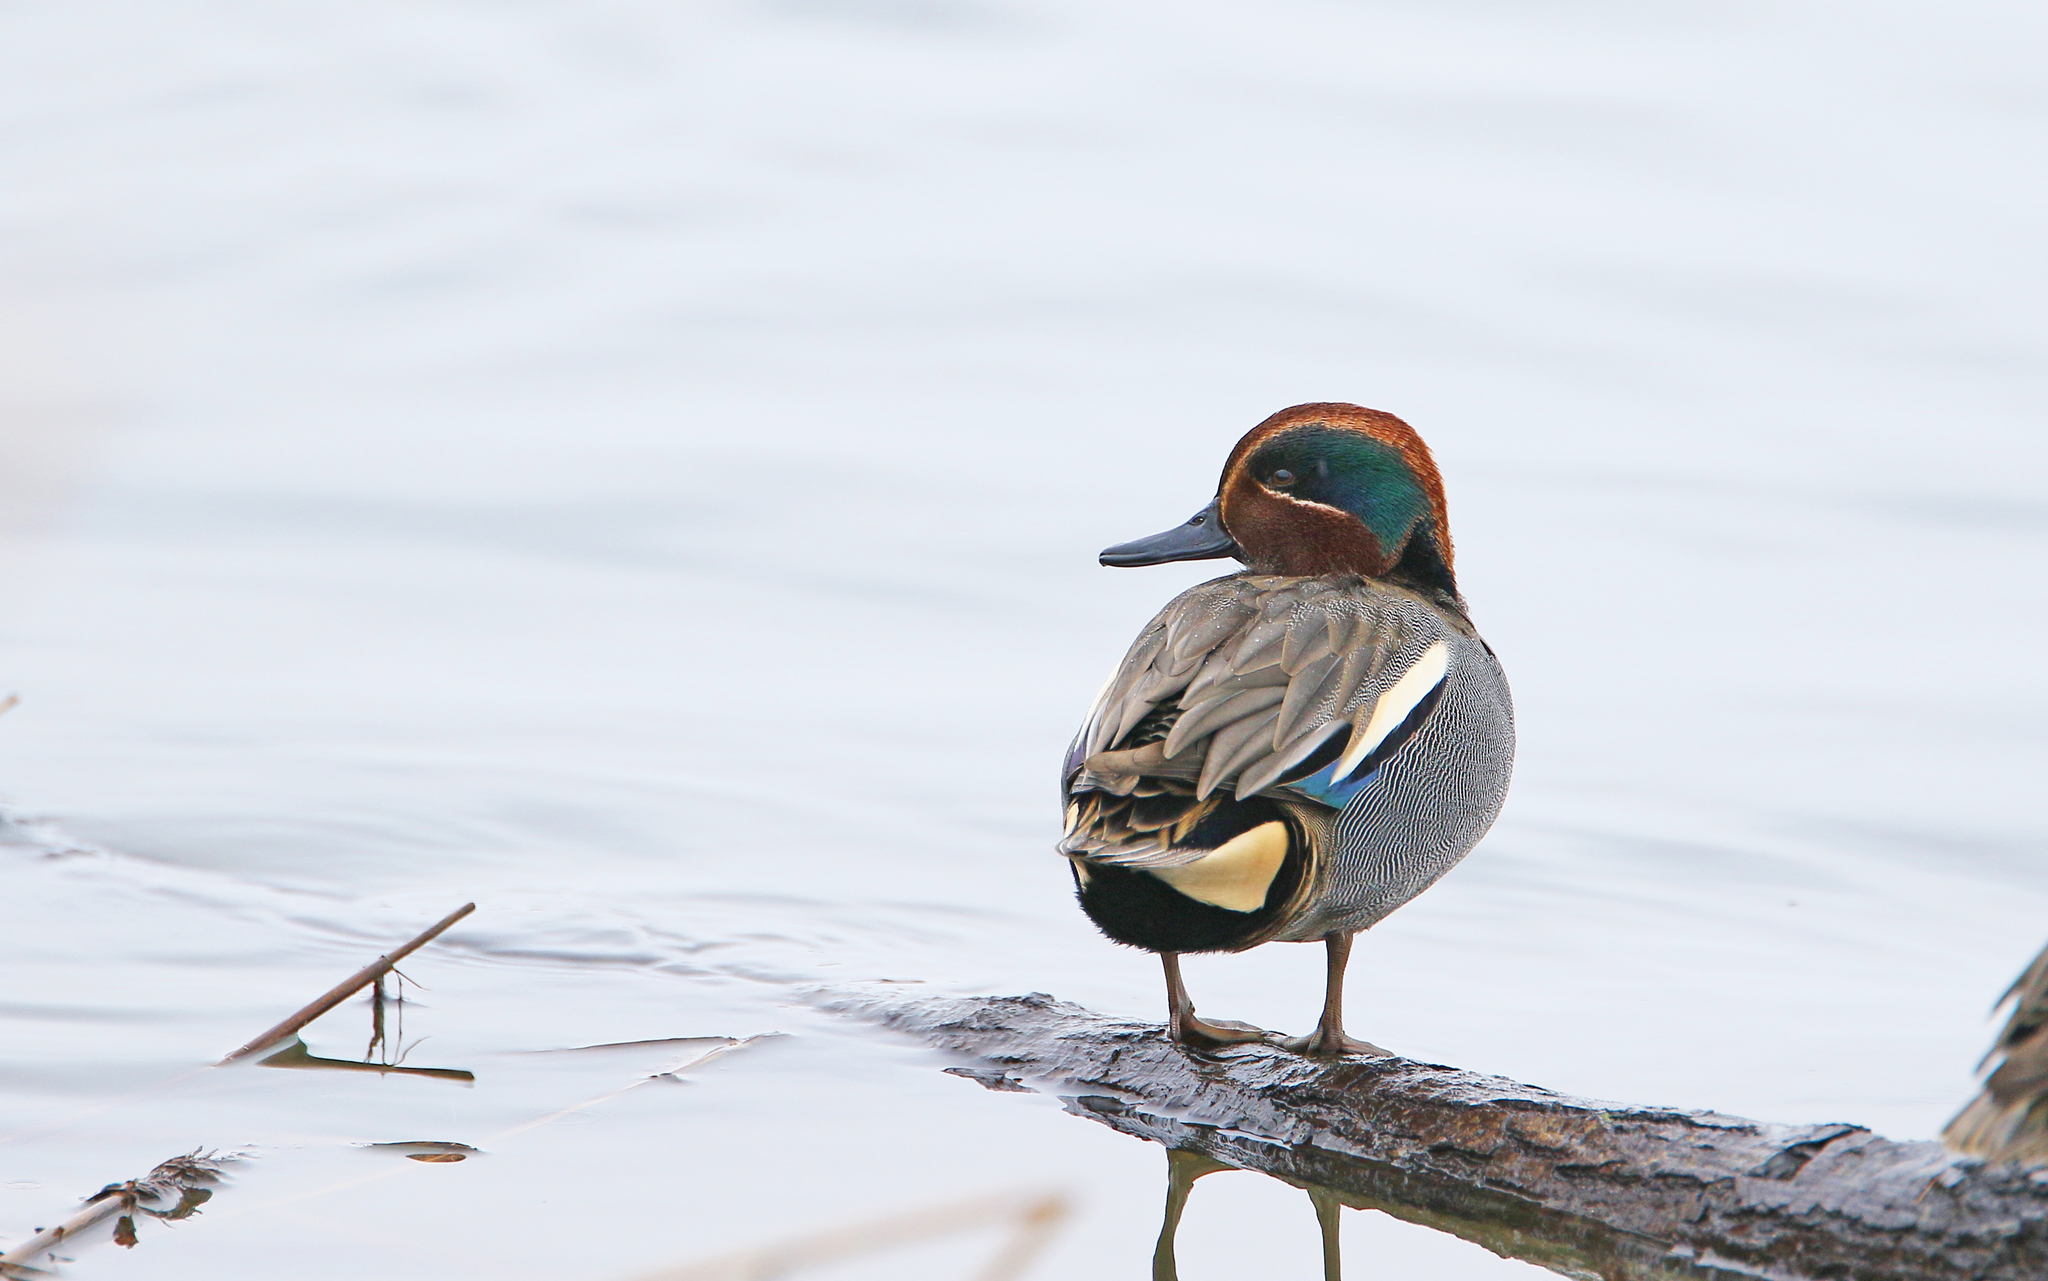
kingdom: Animalia
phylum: Chordata
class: Aves
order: Anseriformes
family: Anatidae
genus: Anas
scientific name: Anas crecca
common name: Eurasian teal
